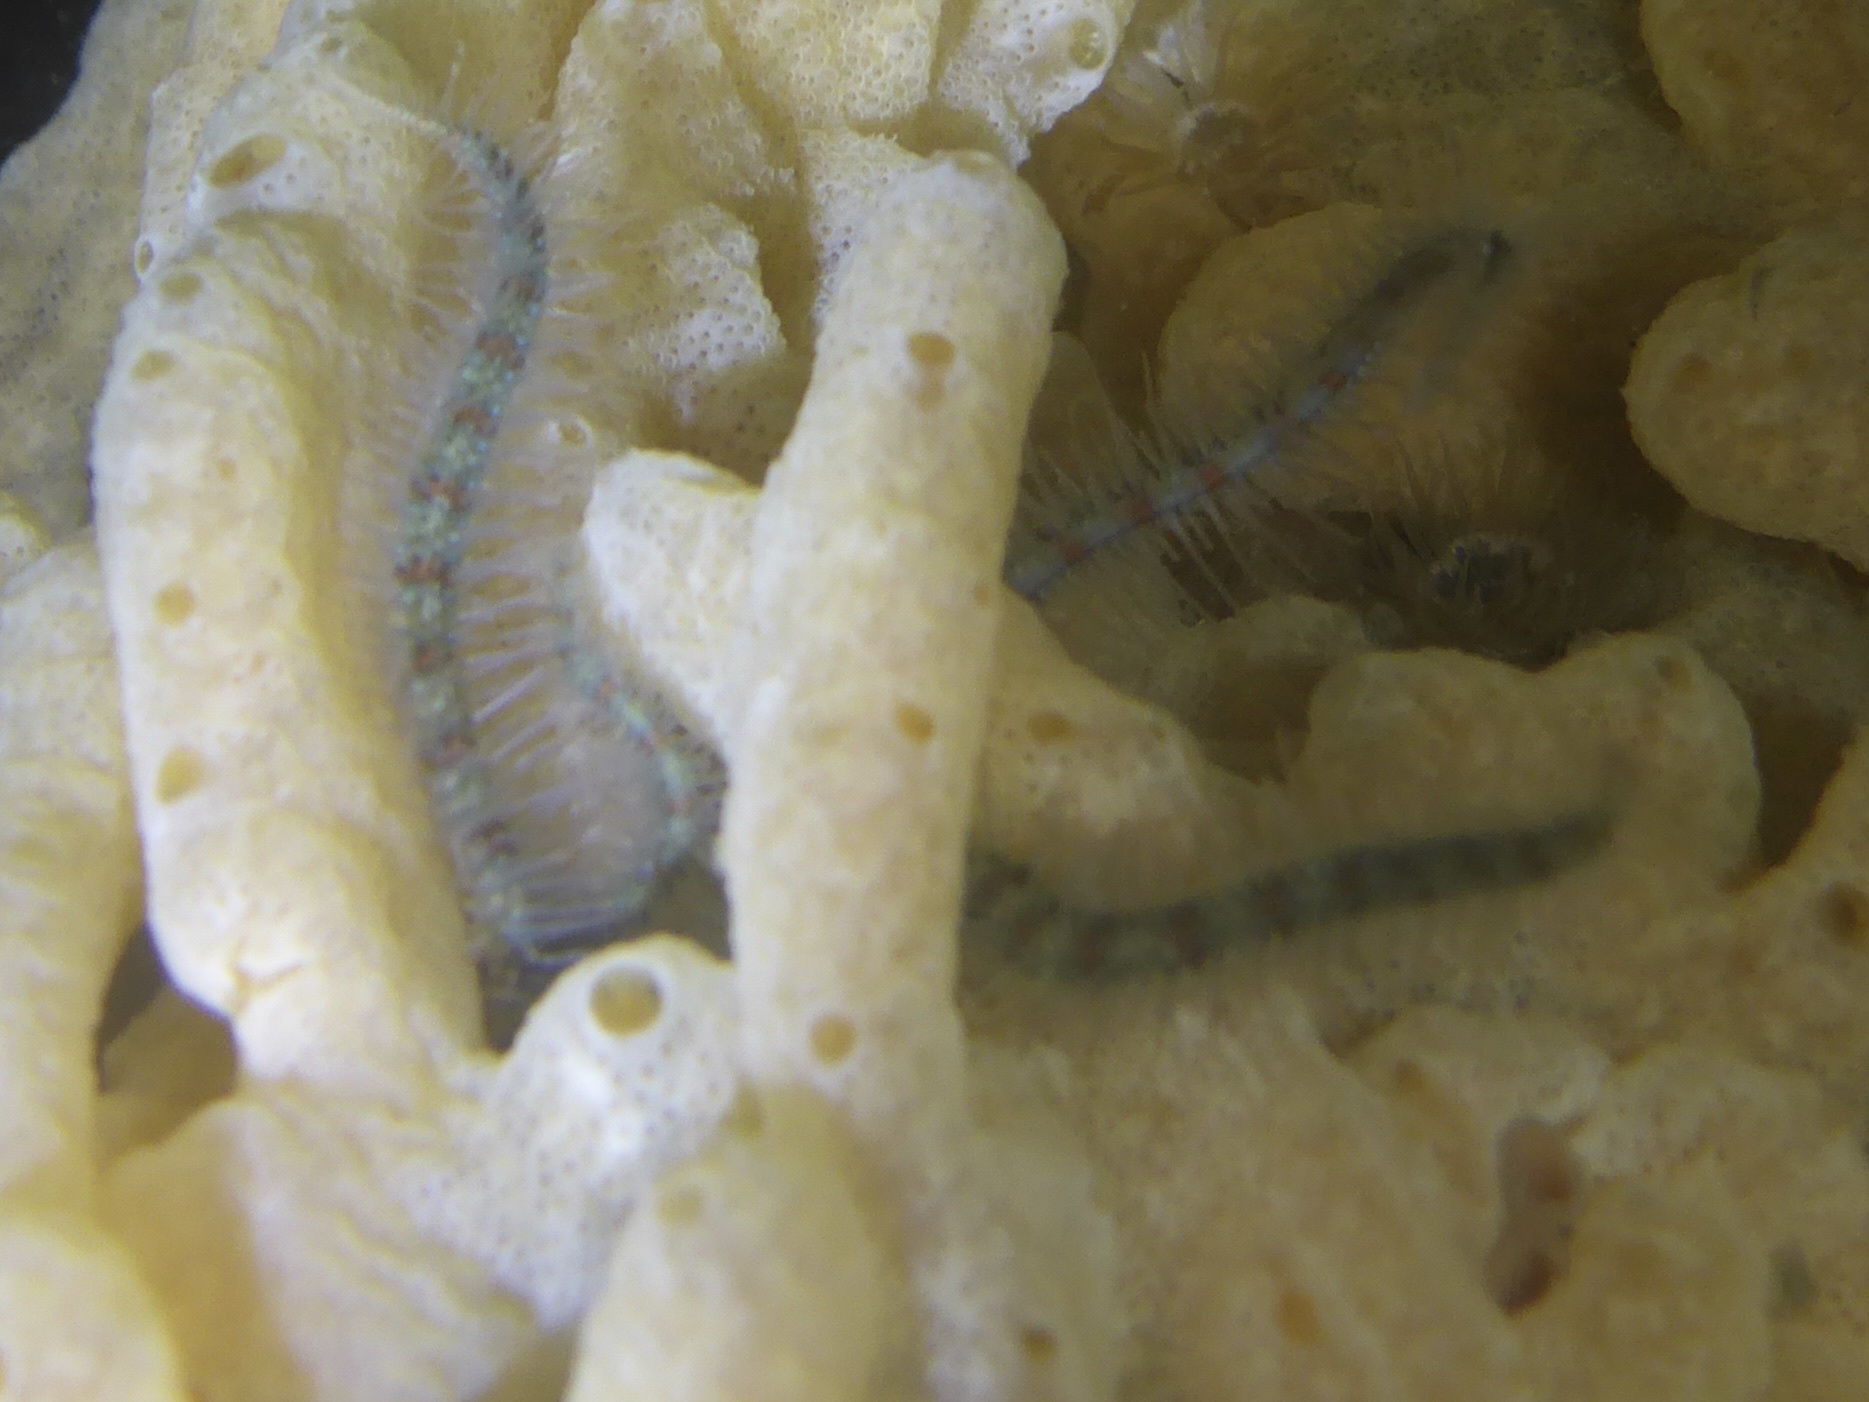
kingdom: Animalia
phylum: Echinodermata
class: Ophiuroidea
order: Amphilepidida
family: Ophiotrichidae
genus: Ophiothrix
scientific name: Ophiothrix spiculata
